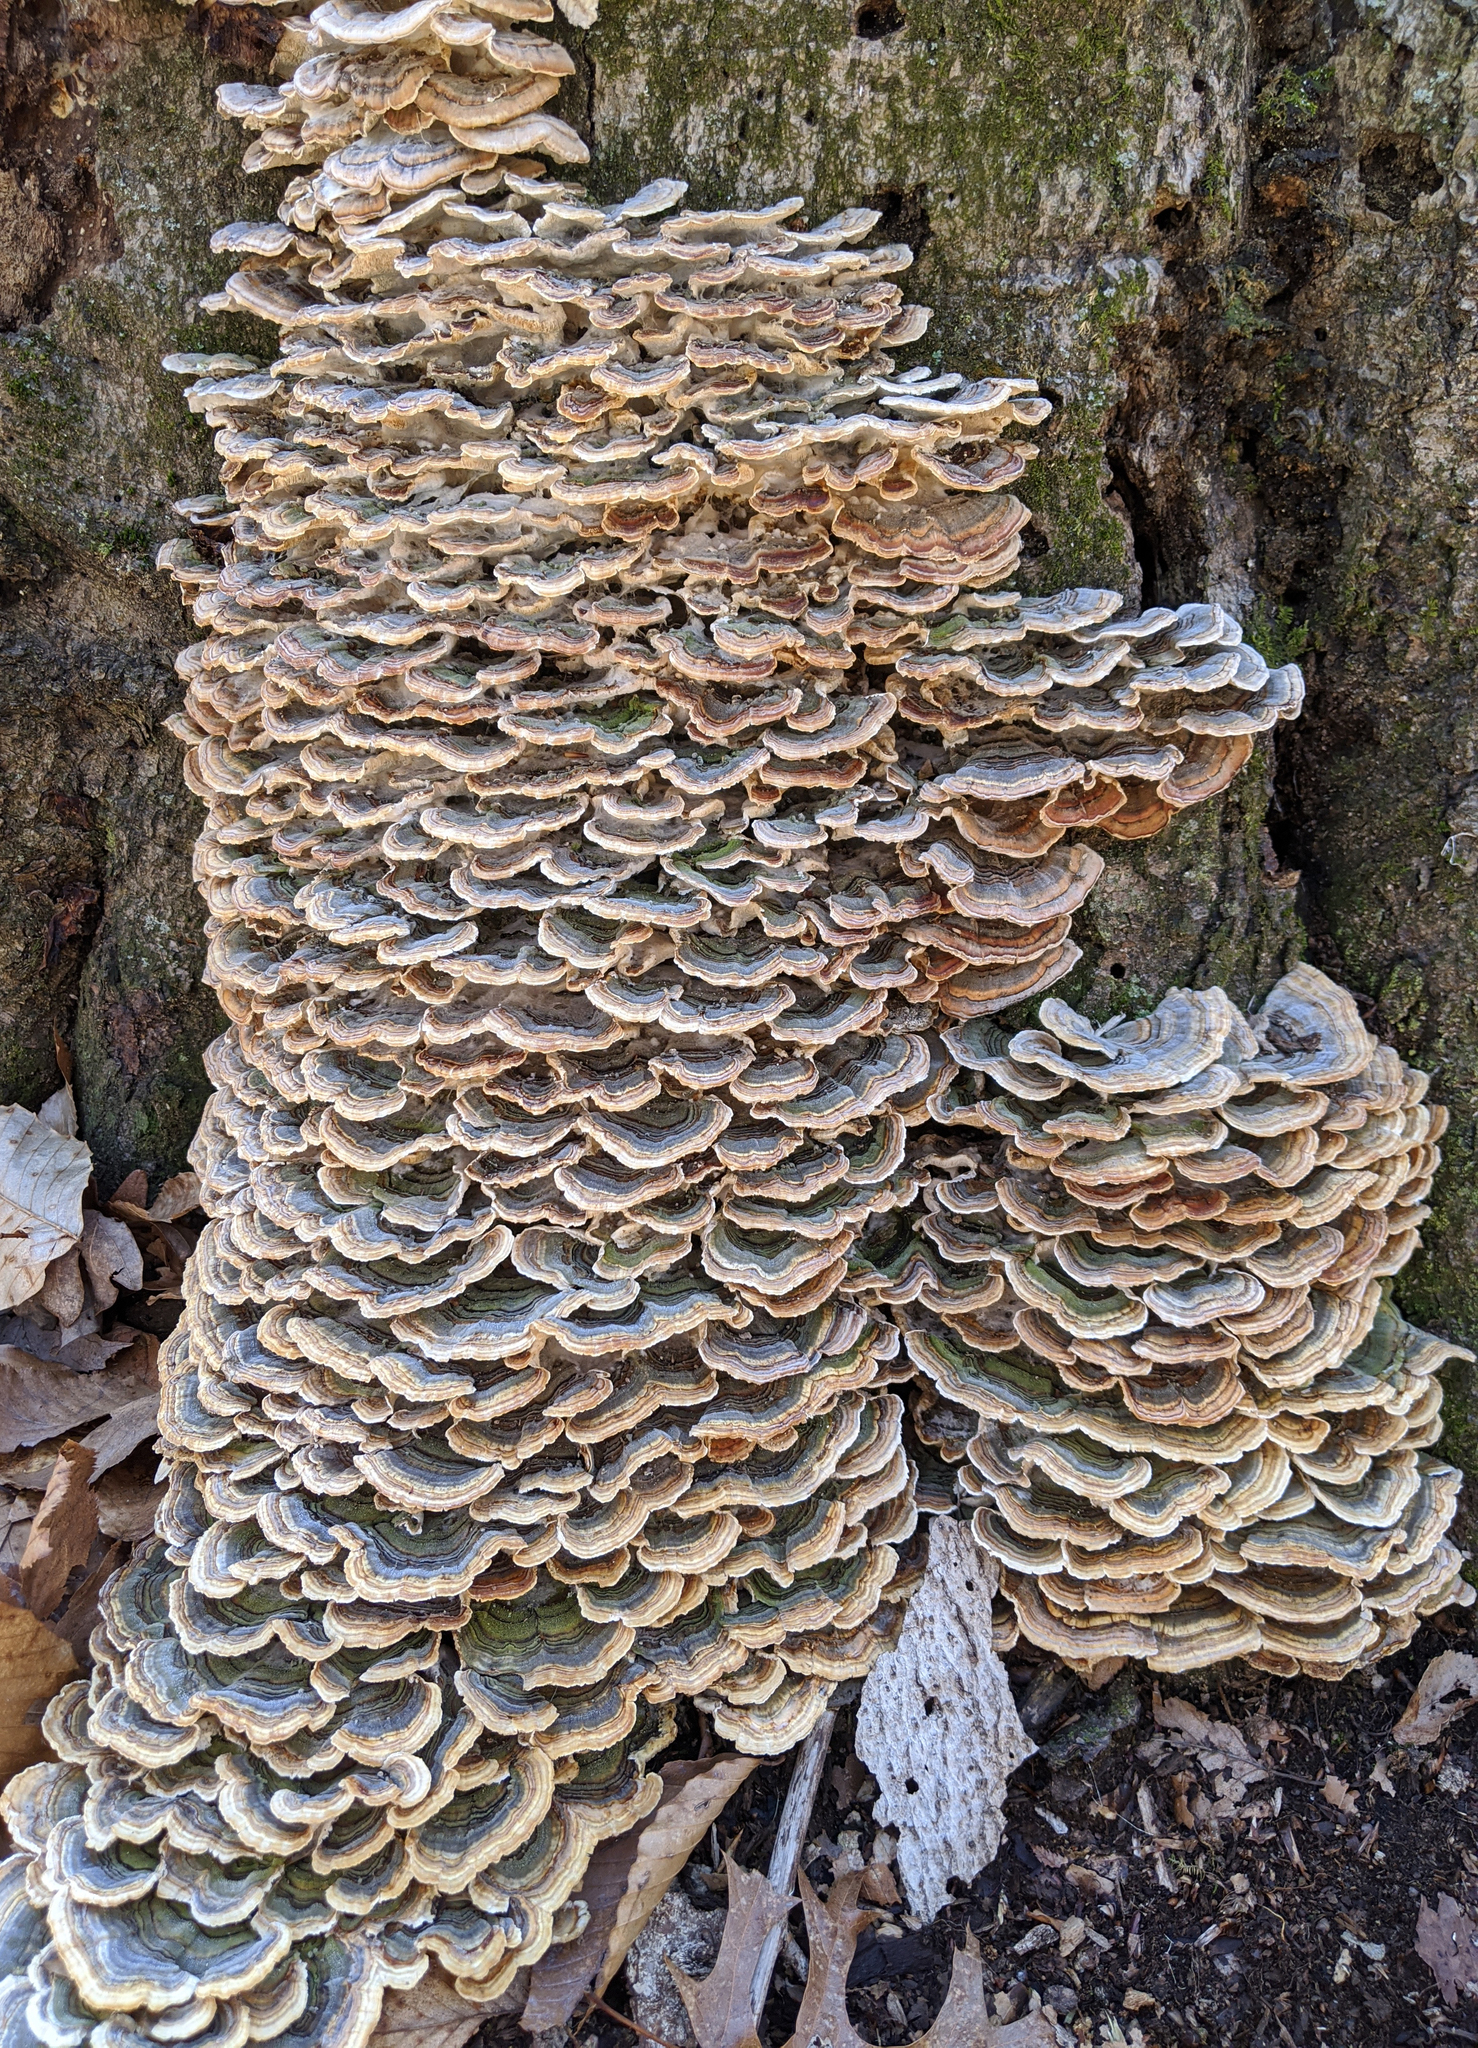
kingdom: Fungi
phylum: Basidiomycota
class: Agaricomycetes
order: Polyporales
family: Polyporaceae
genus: Trametes
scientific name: Trametes versicolor
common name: Turkeytail
